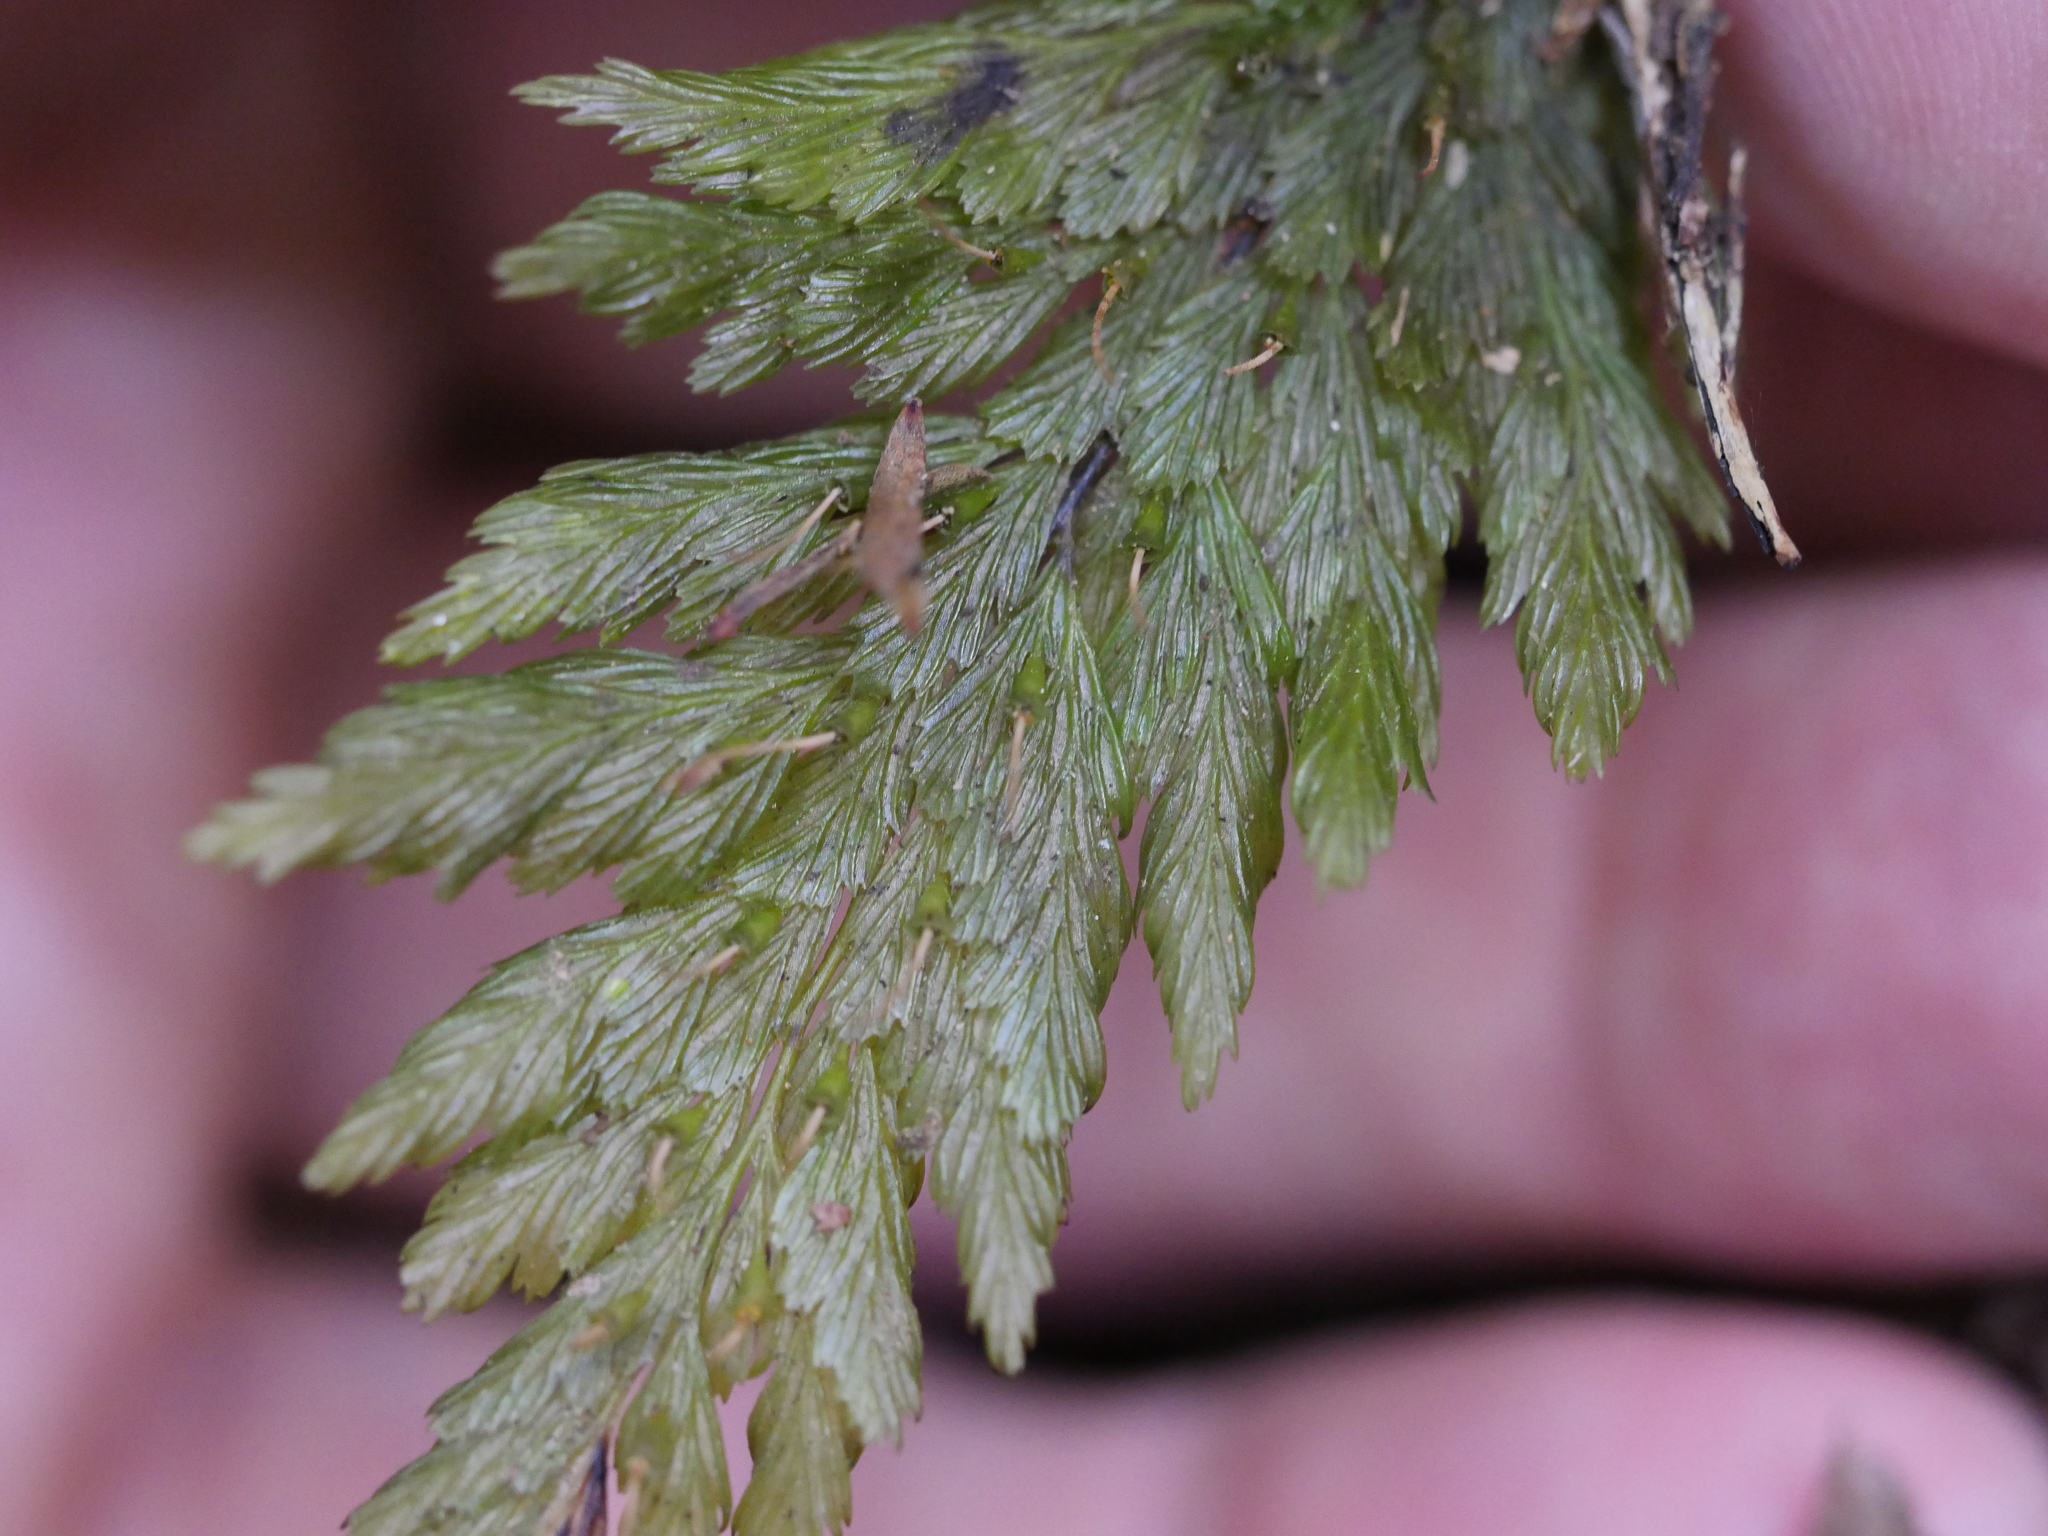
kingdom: Plantae
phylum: Tracheophyta
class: Polypodiopsida
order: Hymenophyllales
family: Hymenophyllaceae
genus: Abrodictyum
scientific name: Abrodictyum elongatum
